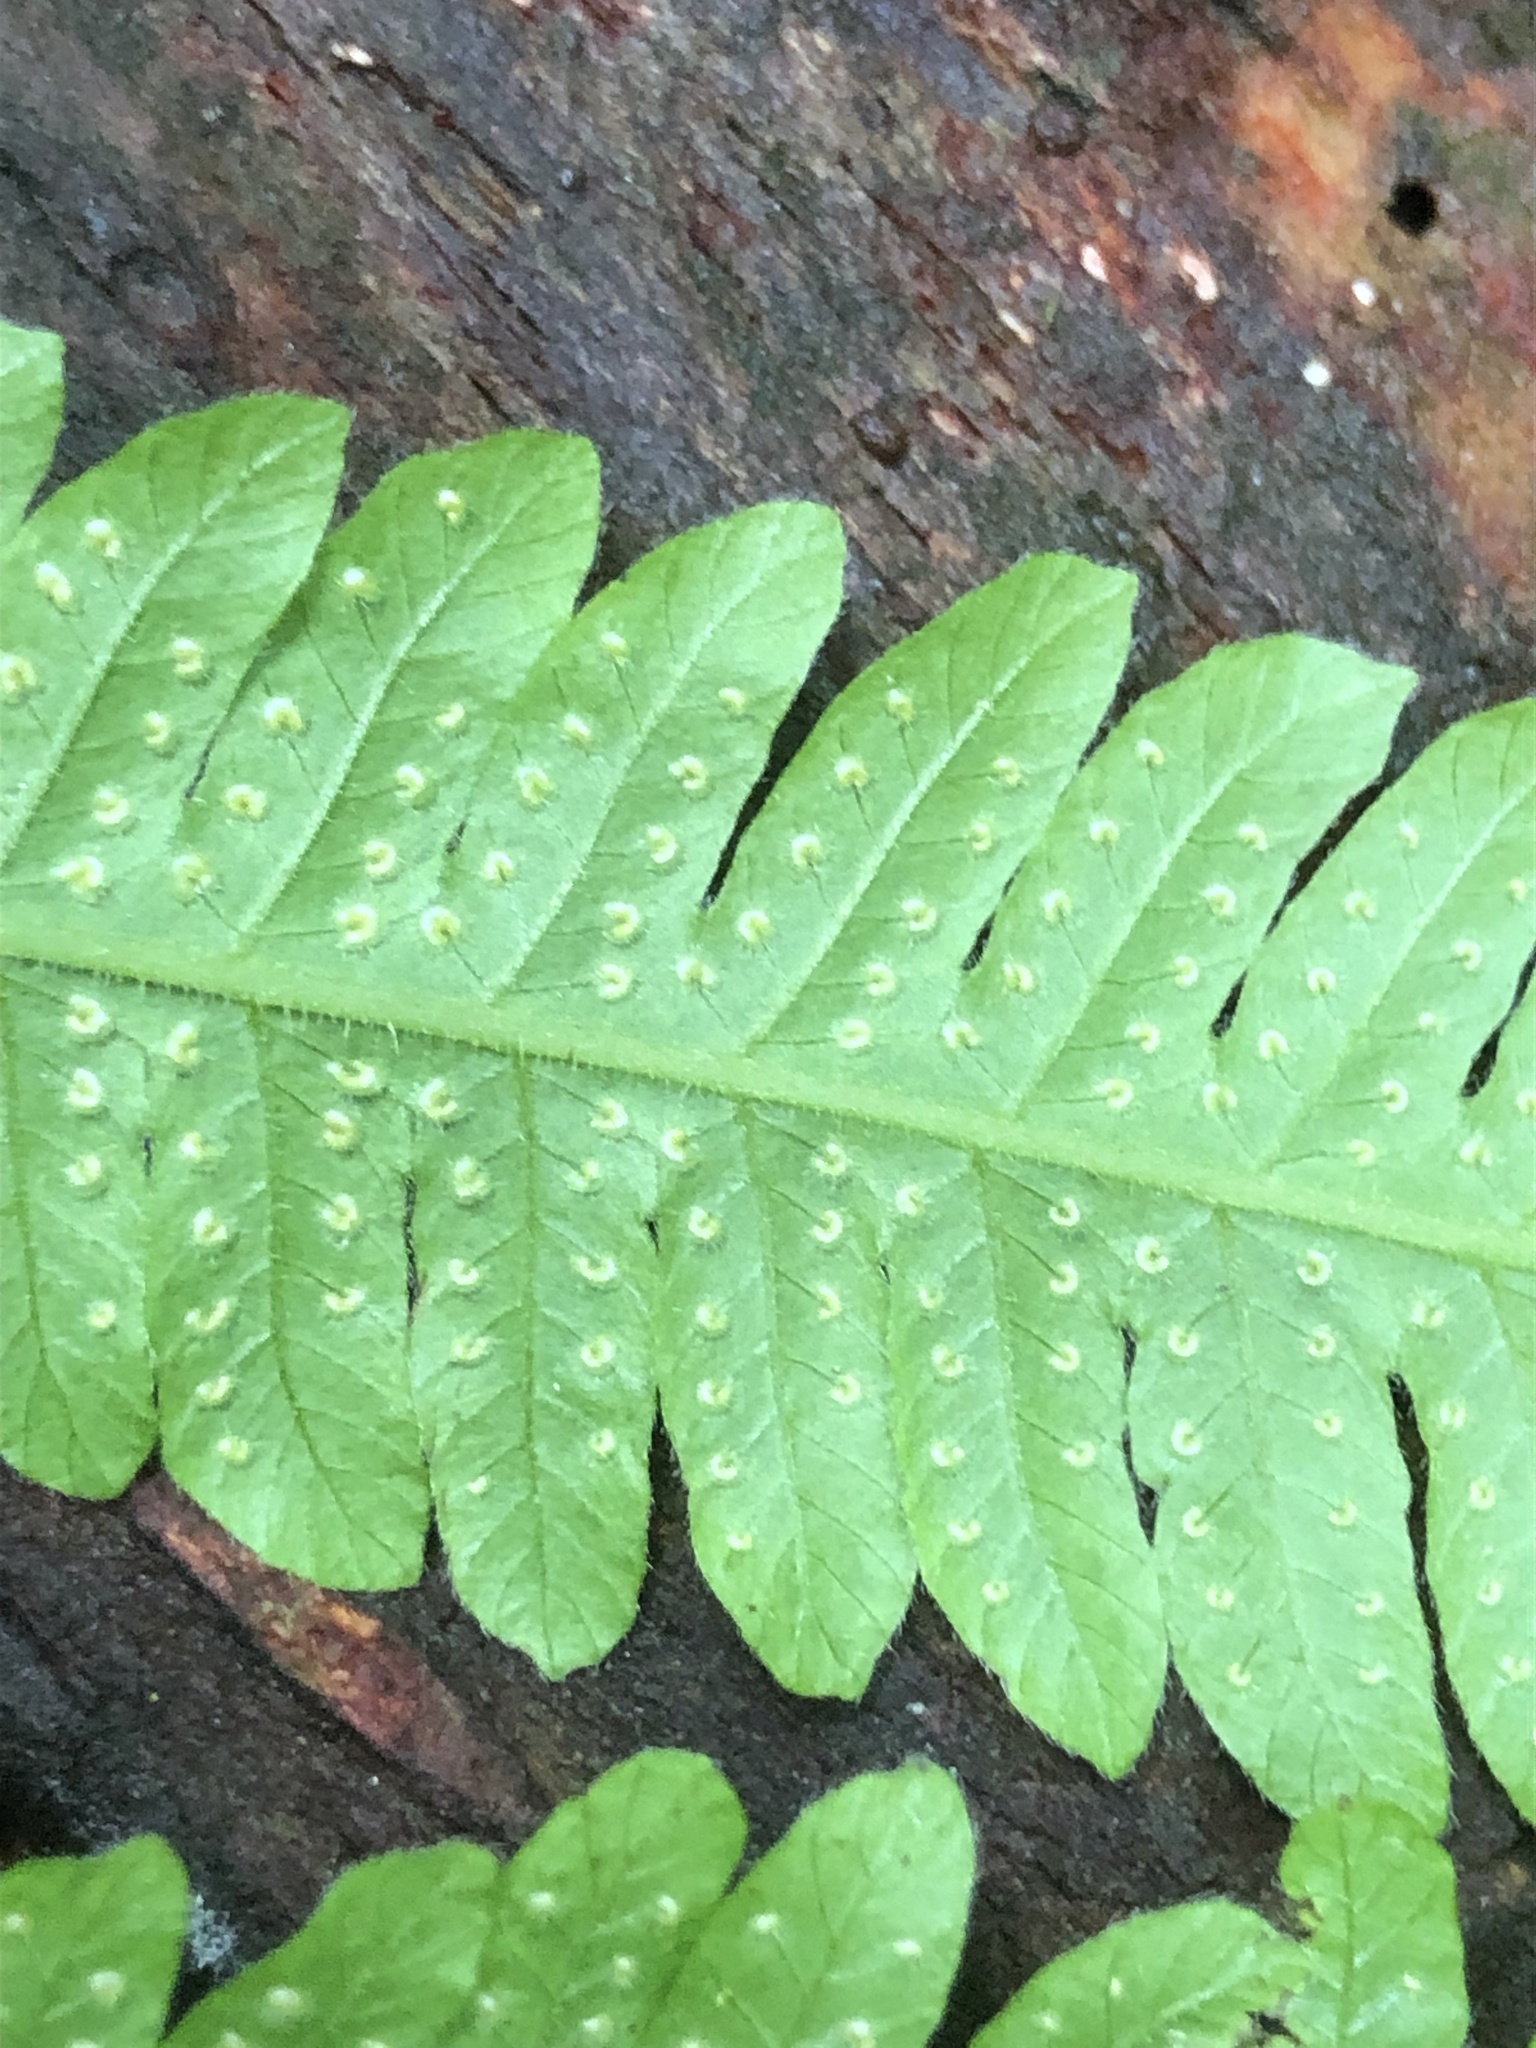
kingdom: Plantae
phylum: Tracheophyta
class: Polypodiopsida
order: Polypodiales
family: Thelypteridaceae
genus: Christella
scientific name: Christella hispidula
